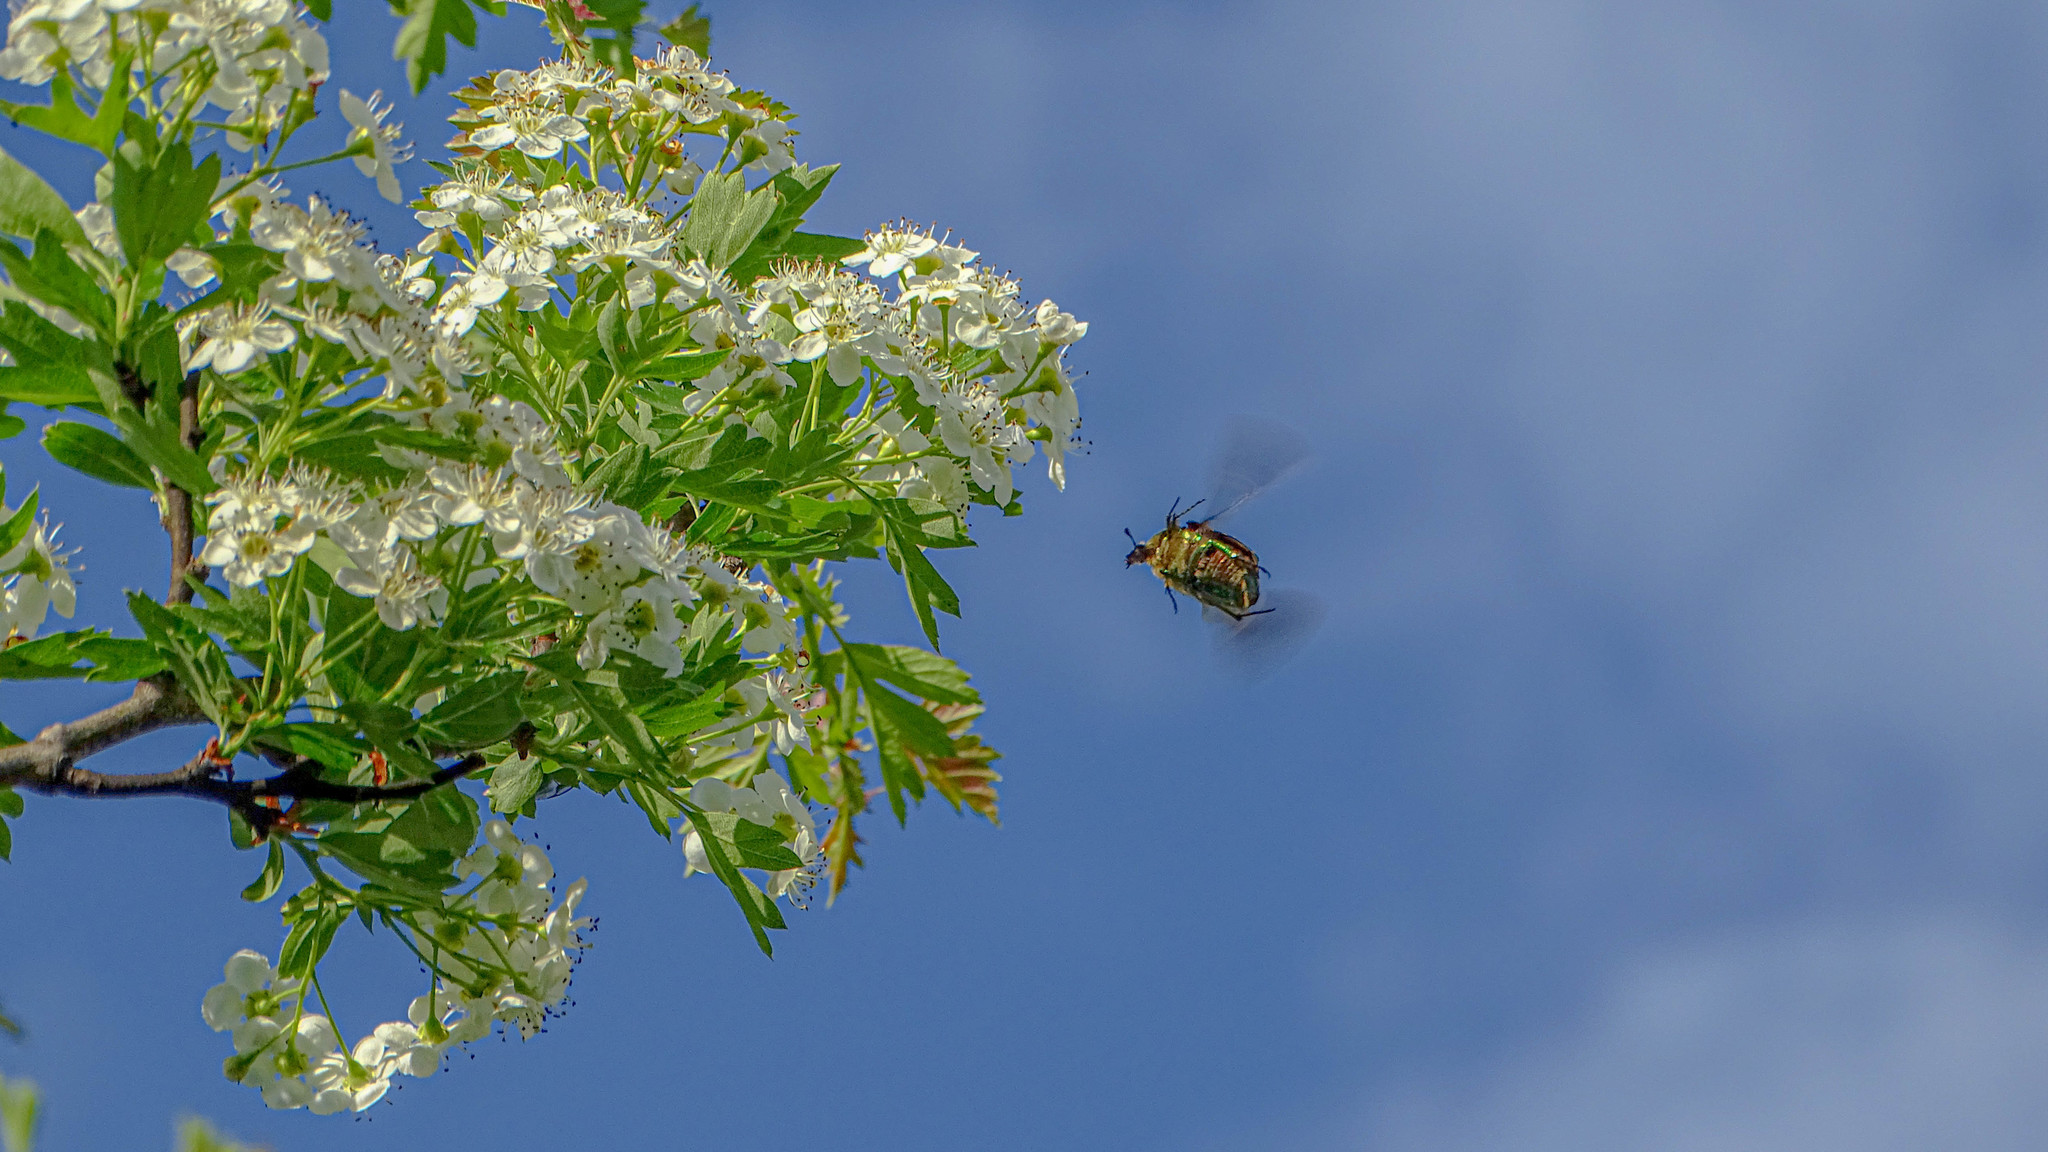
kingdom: Animalia
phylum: Arthropoda
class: Insecta
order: Coleoptera
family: Scarabaeidae
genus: Cetonia
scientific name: Cetonia aurata
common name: Rose chafer
